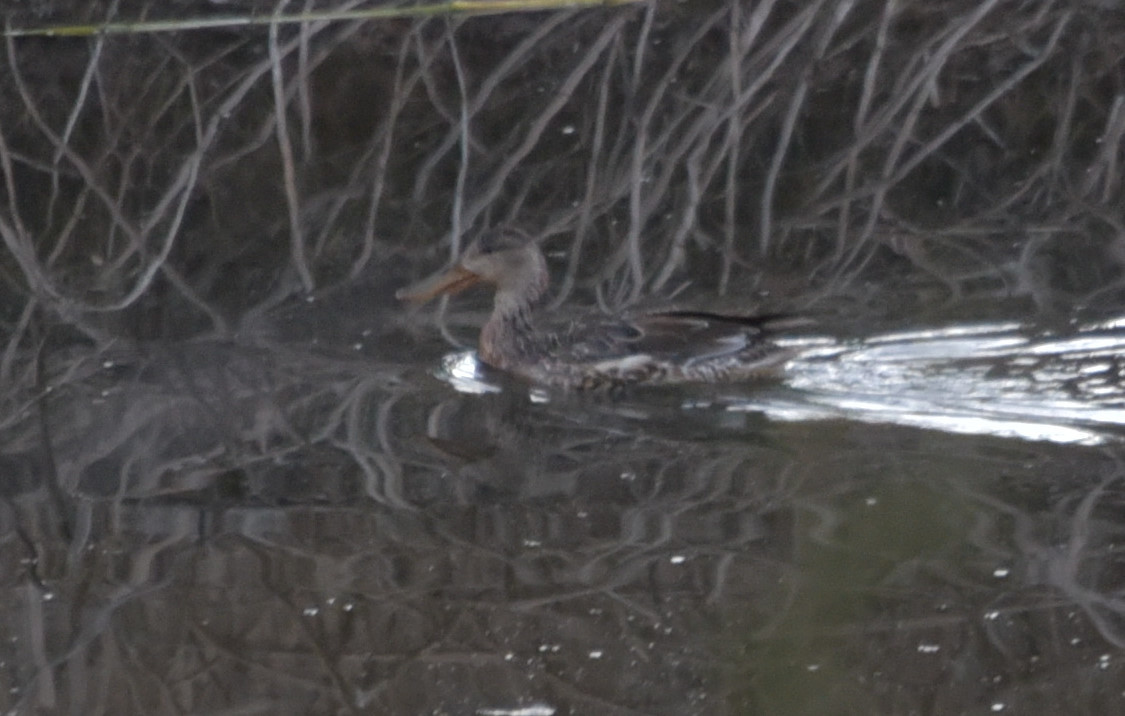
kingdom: Animalia
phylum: Chordata
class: Aves
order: Anseriformes
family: Anatidae
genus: Spatula
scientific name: Spatula clypeata
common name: Northern shoveler
